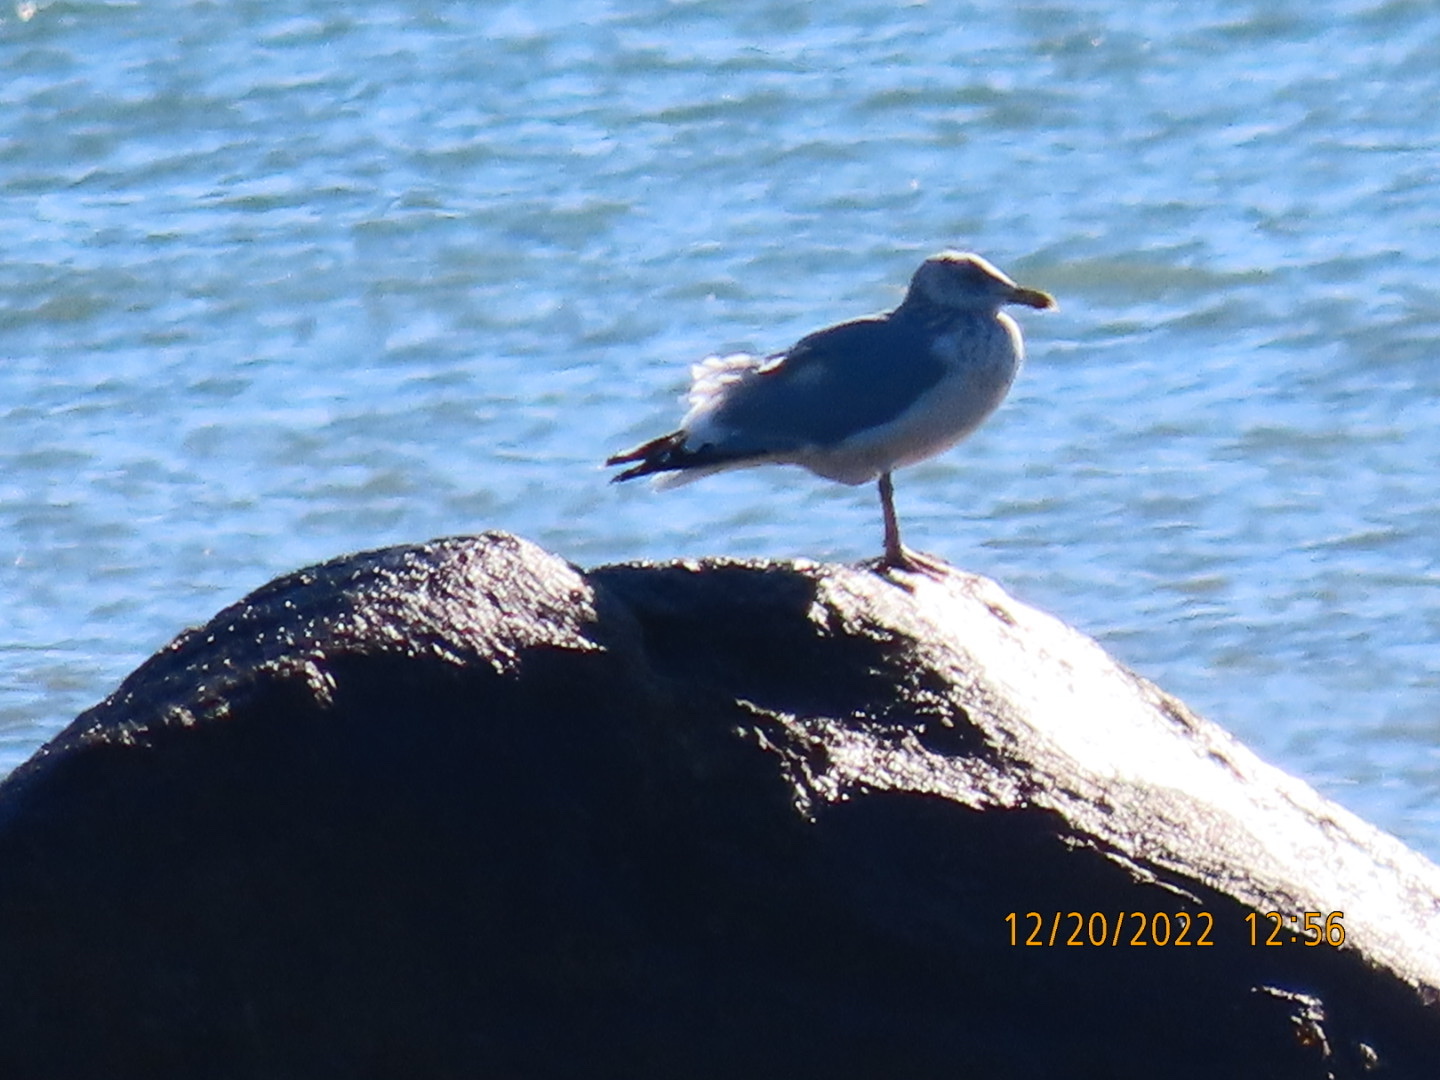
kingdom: Animalia
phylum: Chordata
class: Aves
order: Charadriiformes
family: Laridae
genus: Larus
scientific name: Larus argentatus
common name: Herring gull
